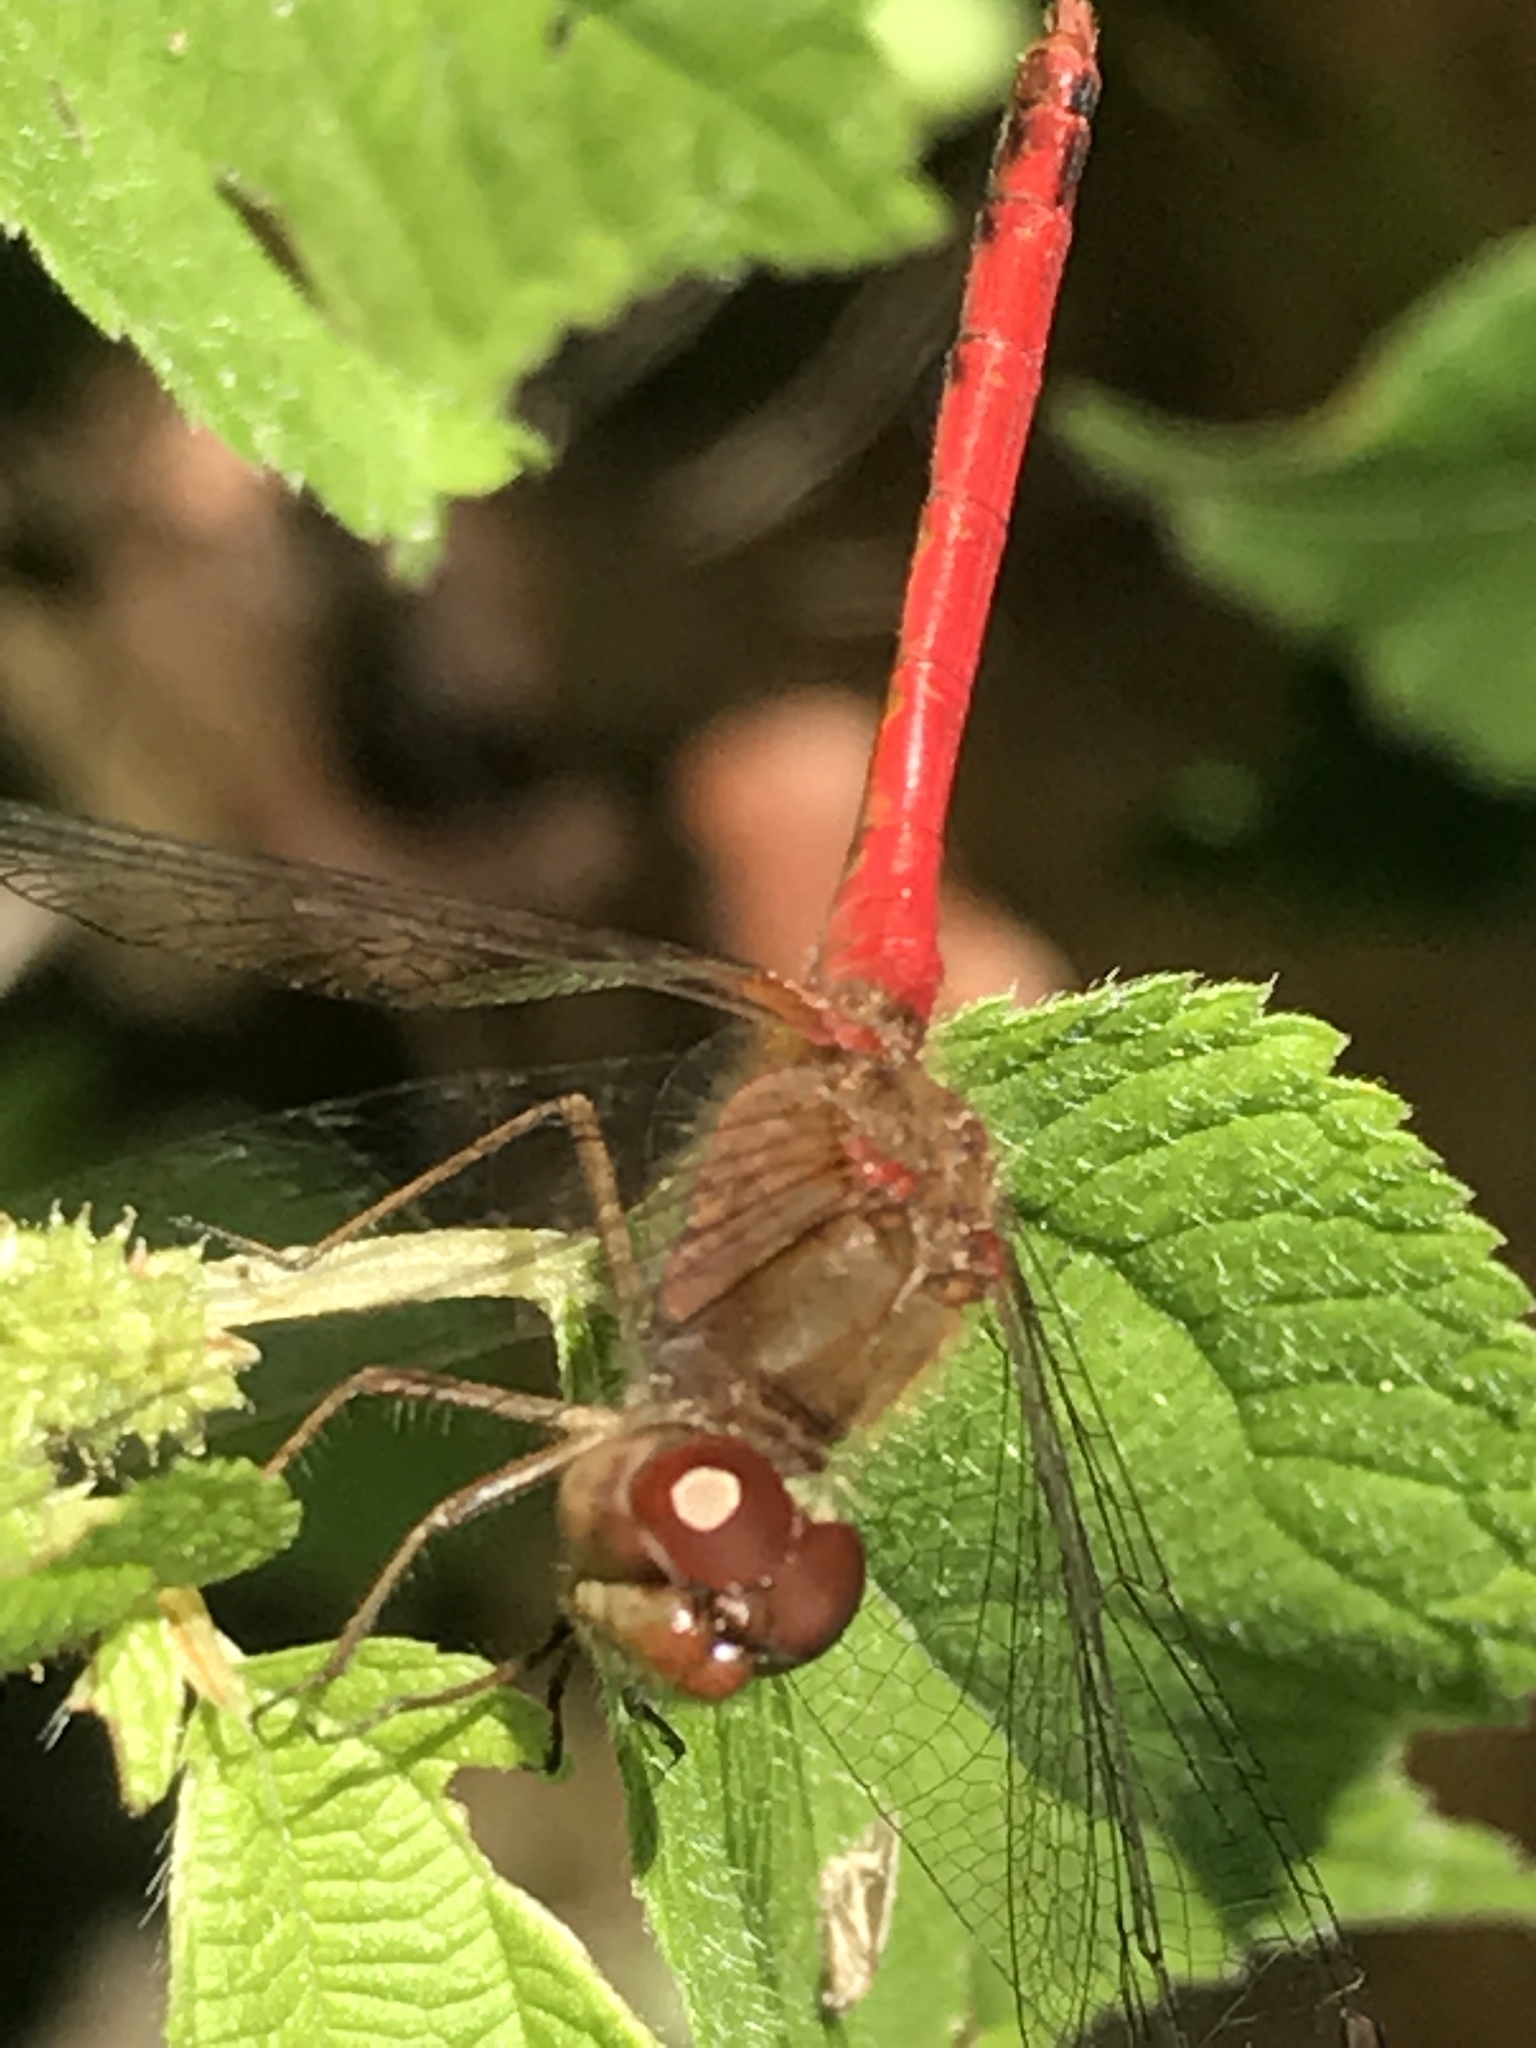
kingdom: Animalia
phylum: Arthropoda
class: Insecta
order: Odonata
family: Libellulidae
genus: Sympetrum
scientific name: Sympetrum vicinum
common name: Autumn meadowhawk
